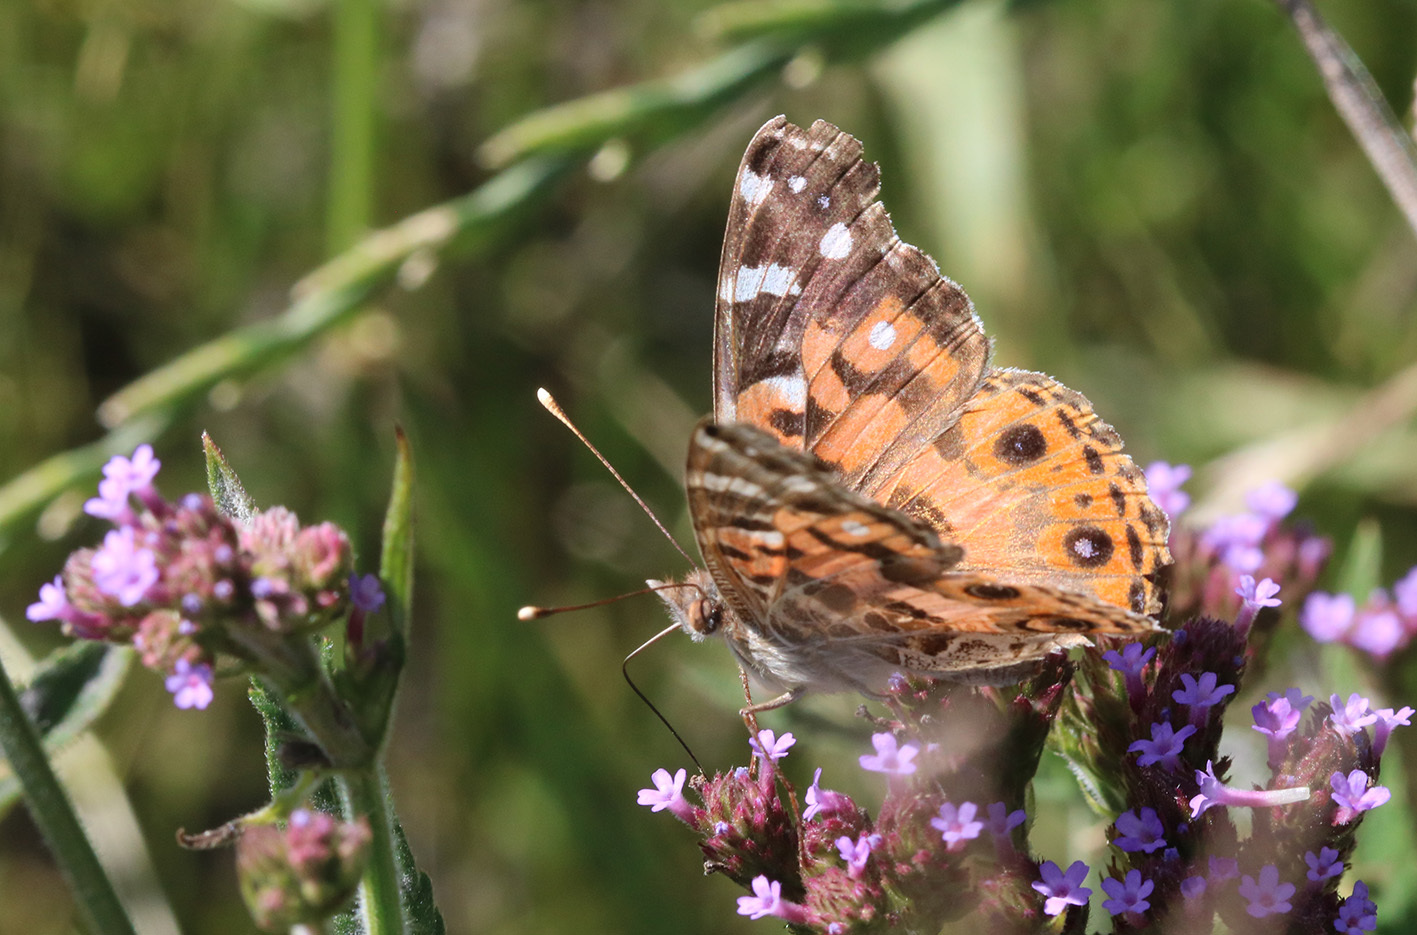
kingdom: Animalia
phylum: Arthropoda
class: Insecta
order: Lepidoptera
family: Nymphalidae
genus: Vanessa
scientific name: Vanessa braziliensis
